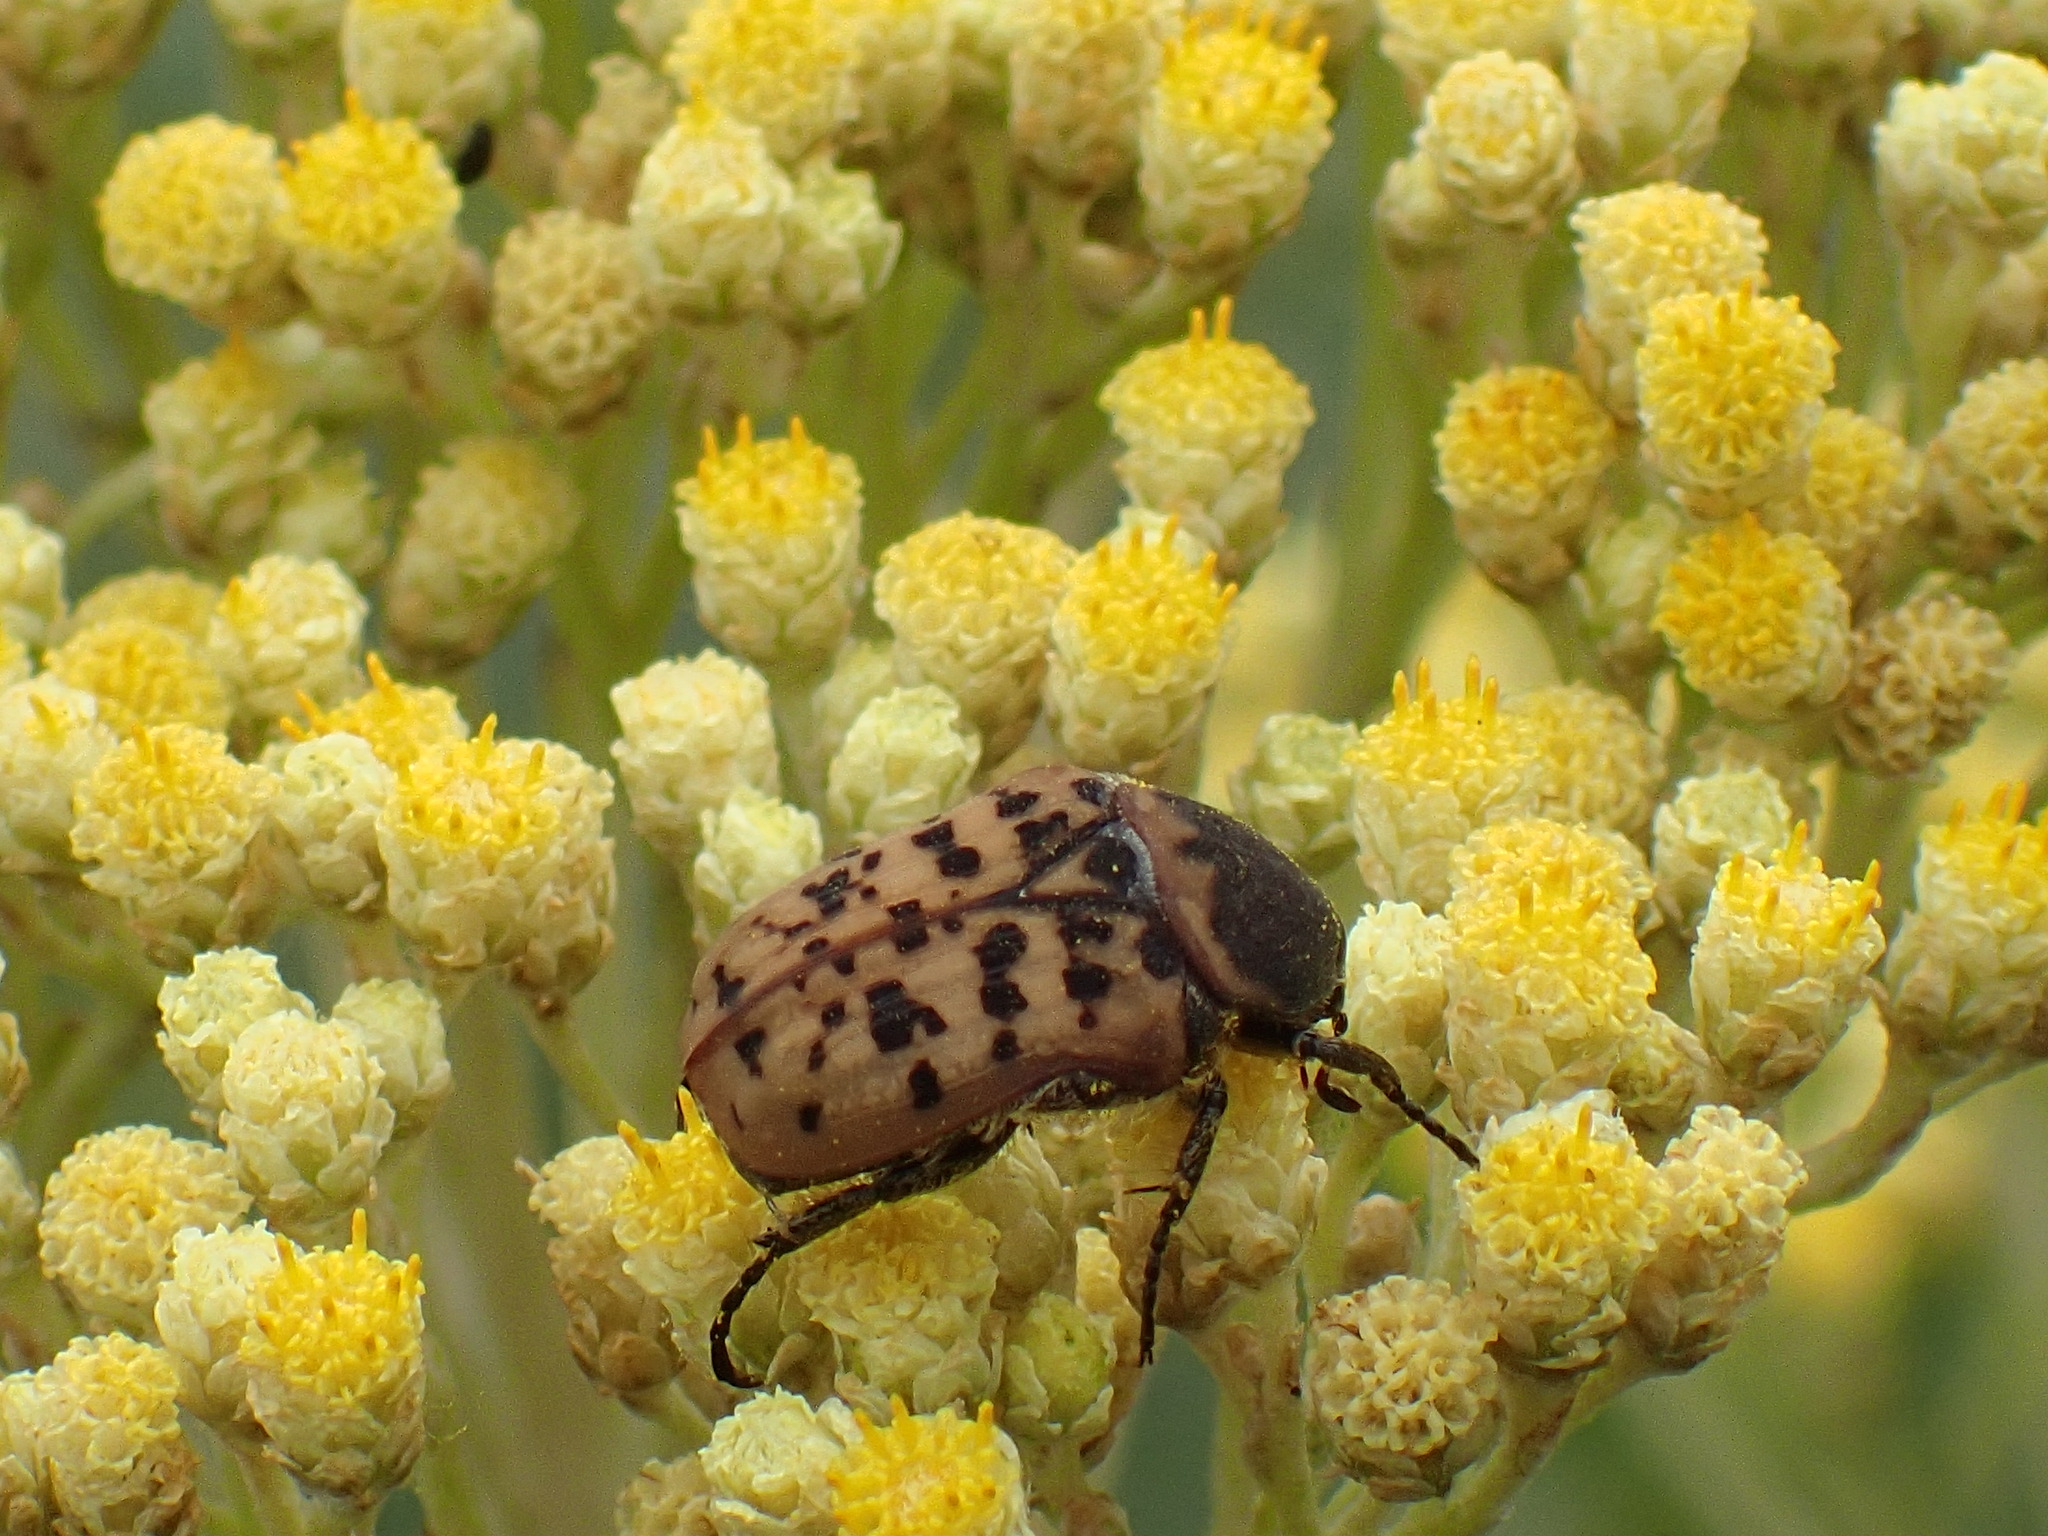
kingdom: Animalia
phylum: Arthropoda
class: Insecta
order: Coleoptera
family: Scarabaeidae
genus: Atrichelaphinis
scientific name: Atrichelaphinis tigrina
